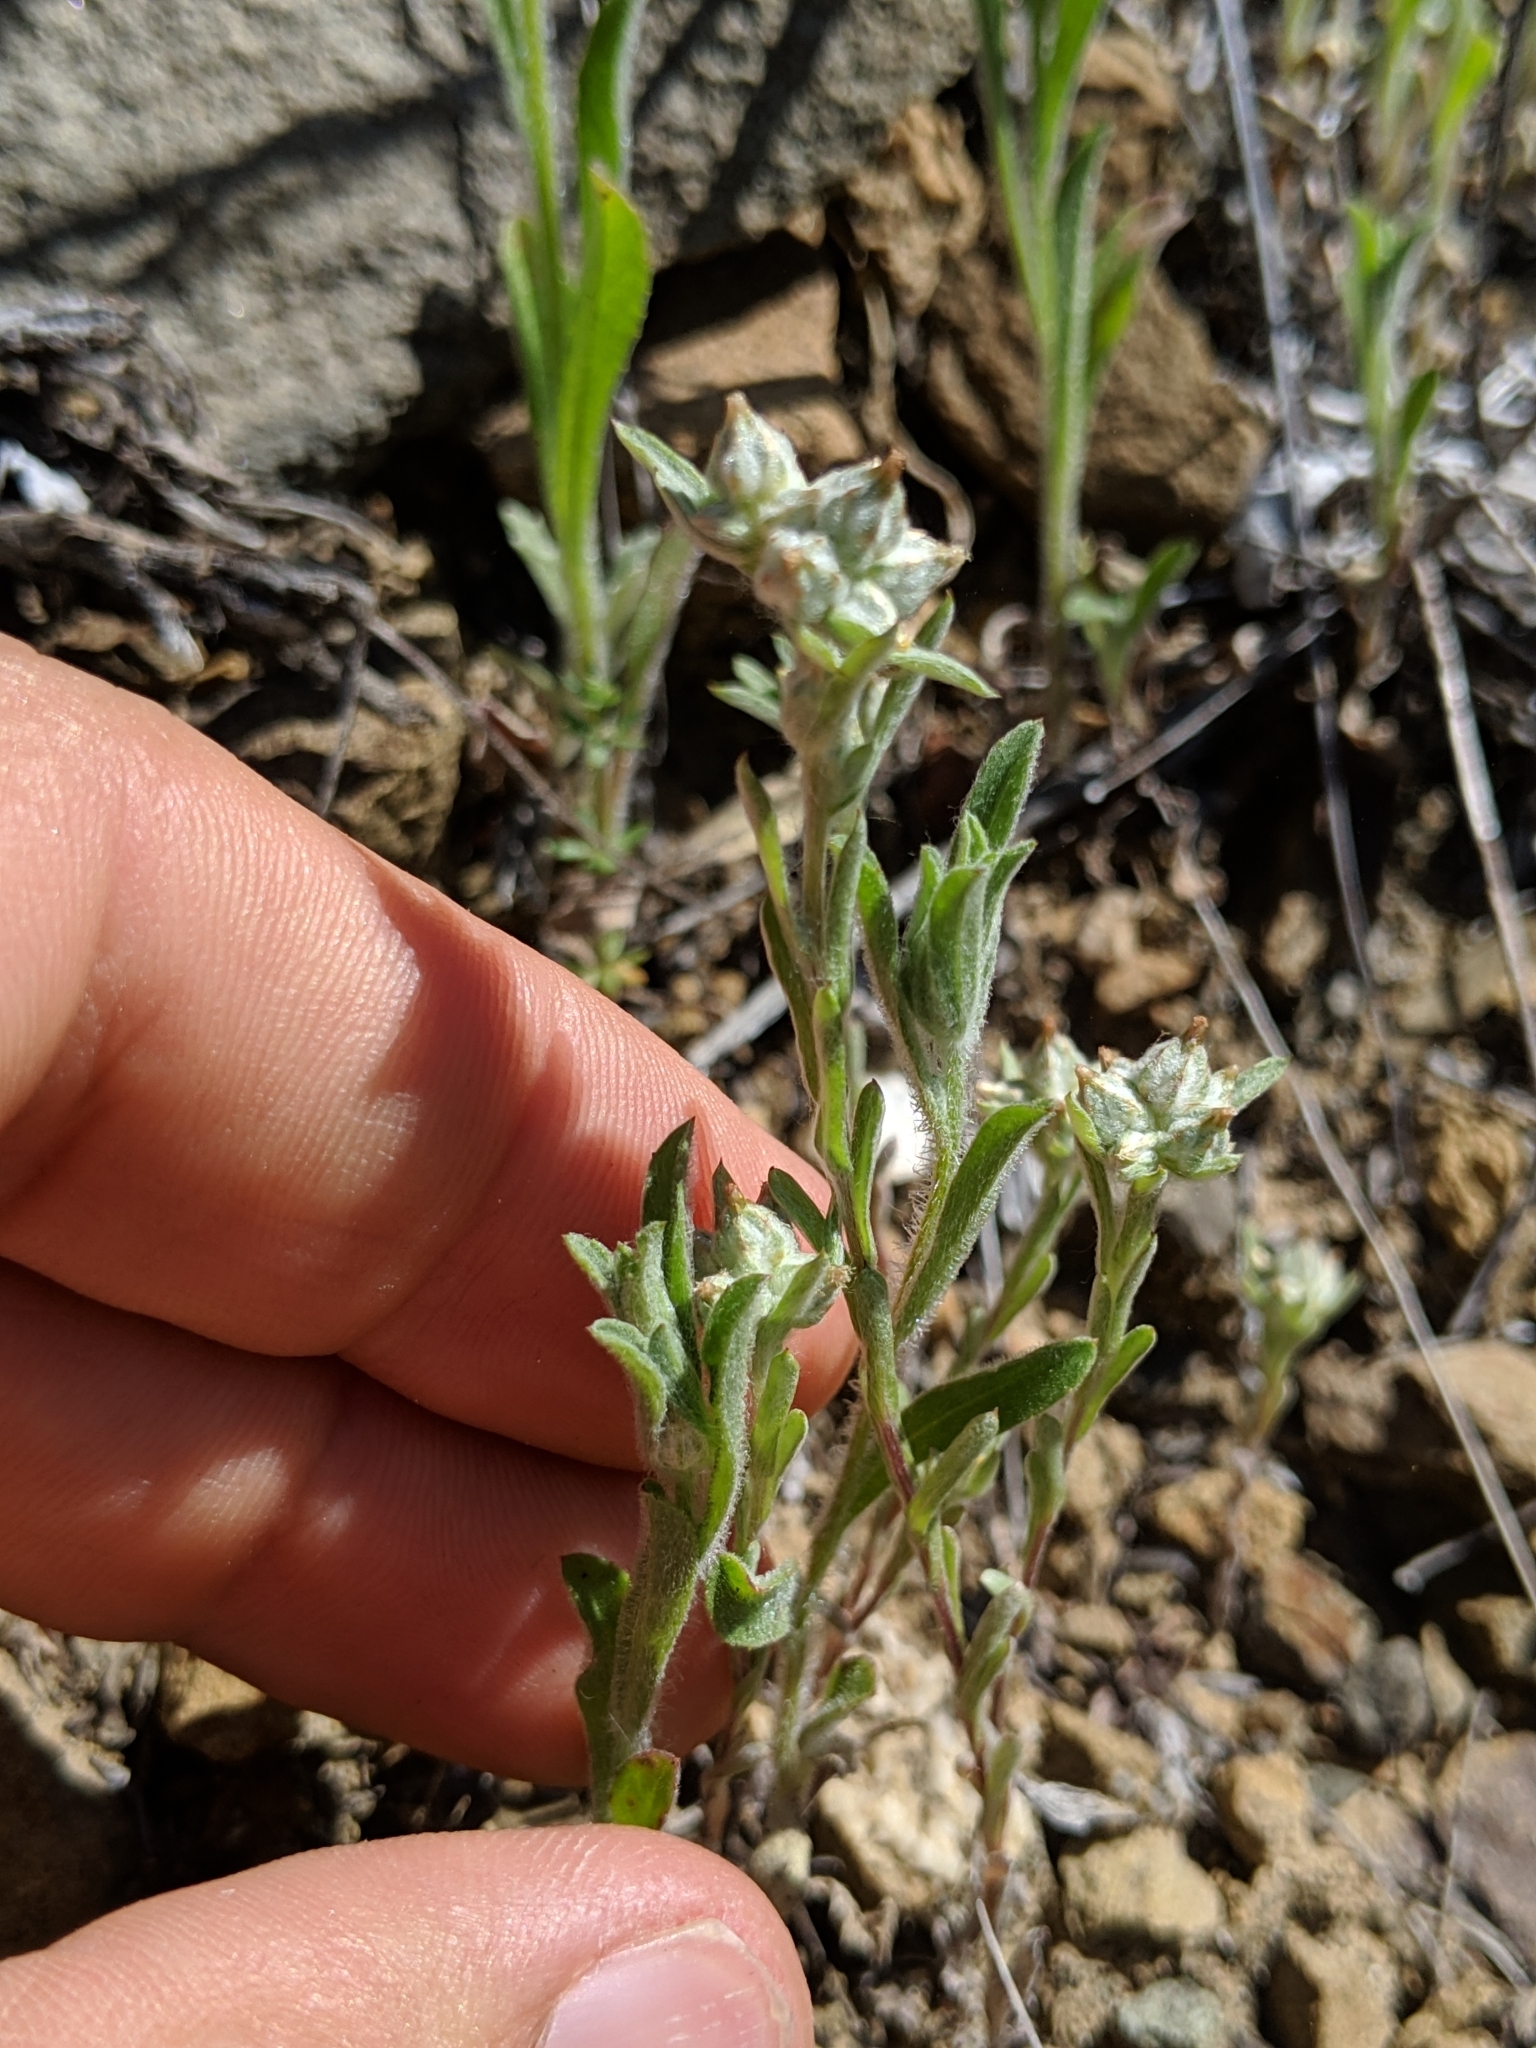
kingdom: Plantae
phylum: Tracheophyta
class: Magnoliopsida
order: Asterales
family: Asteraceae
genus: Logfia
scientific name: Logfia californica
